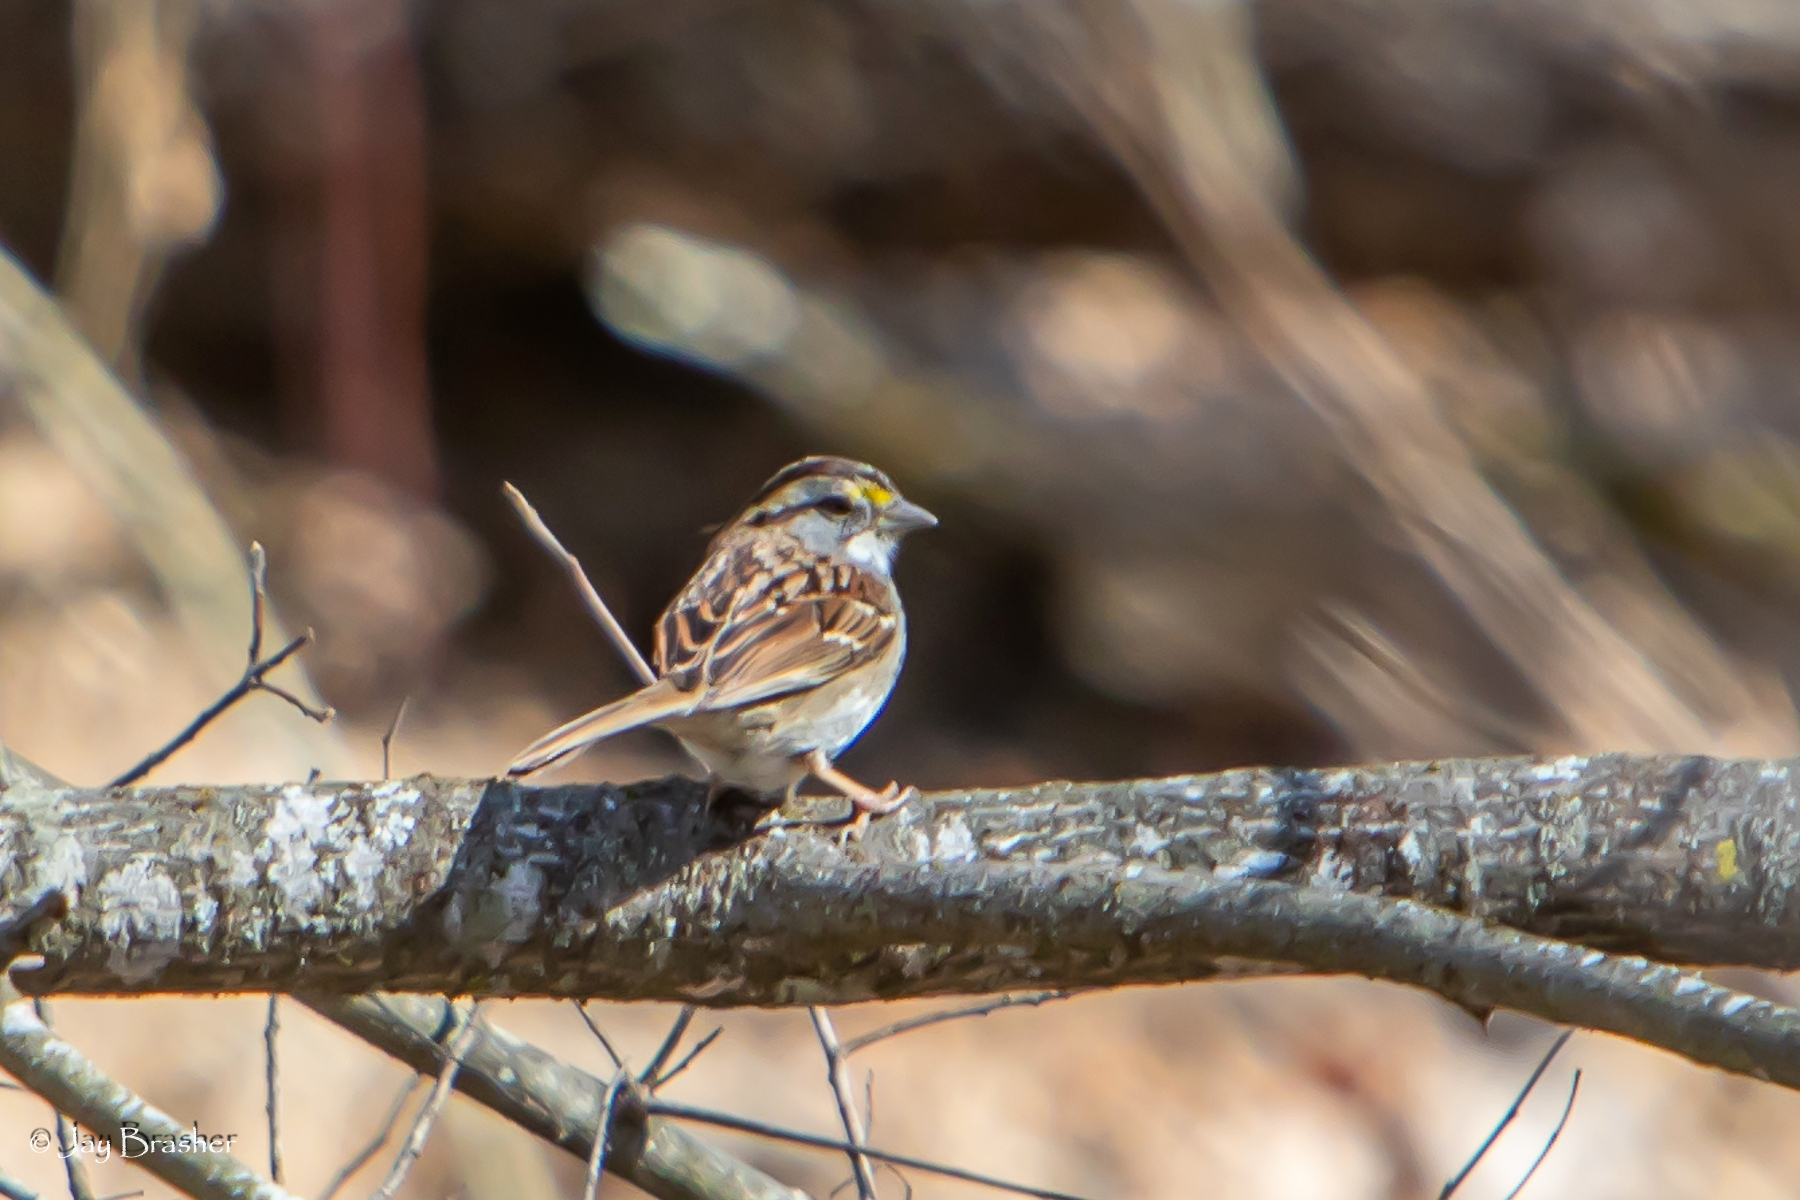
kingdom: Animalia
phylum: Chordata
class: Aves
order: Passeriformes
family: Passerellidae
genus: Zonotrichia
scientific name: Zonotrichia albicollis
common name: White-throated sparrow
